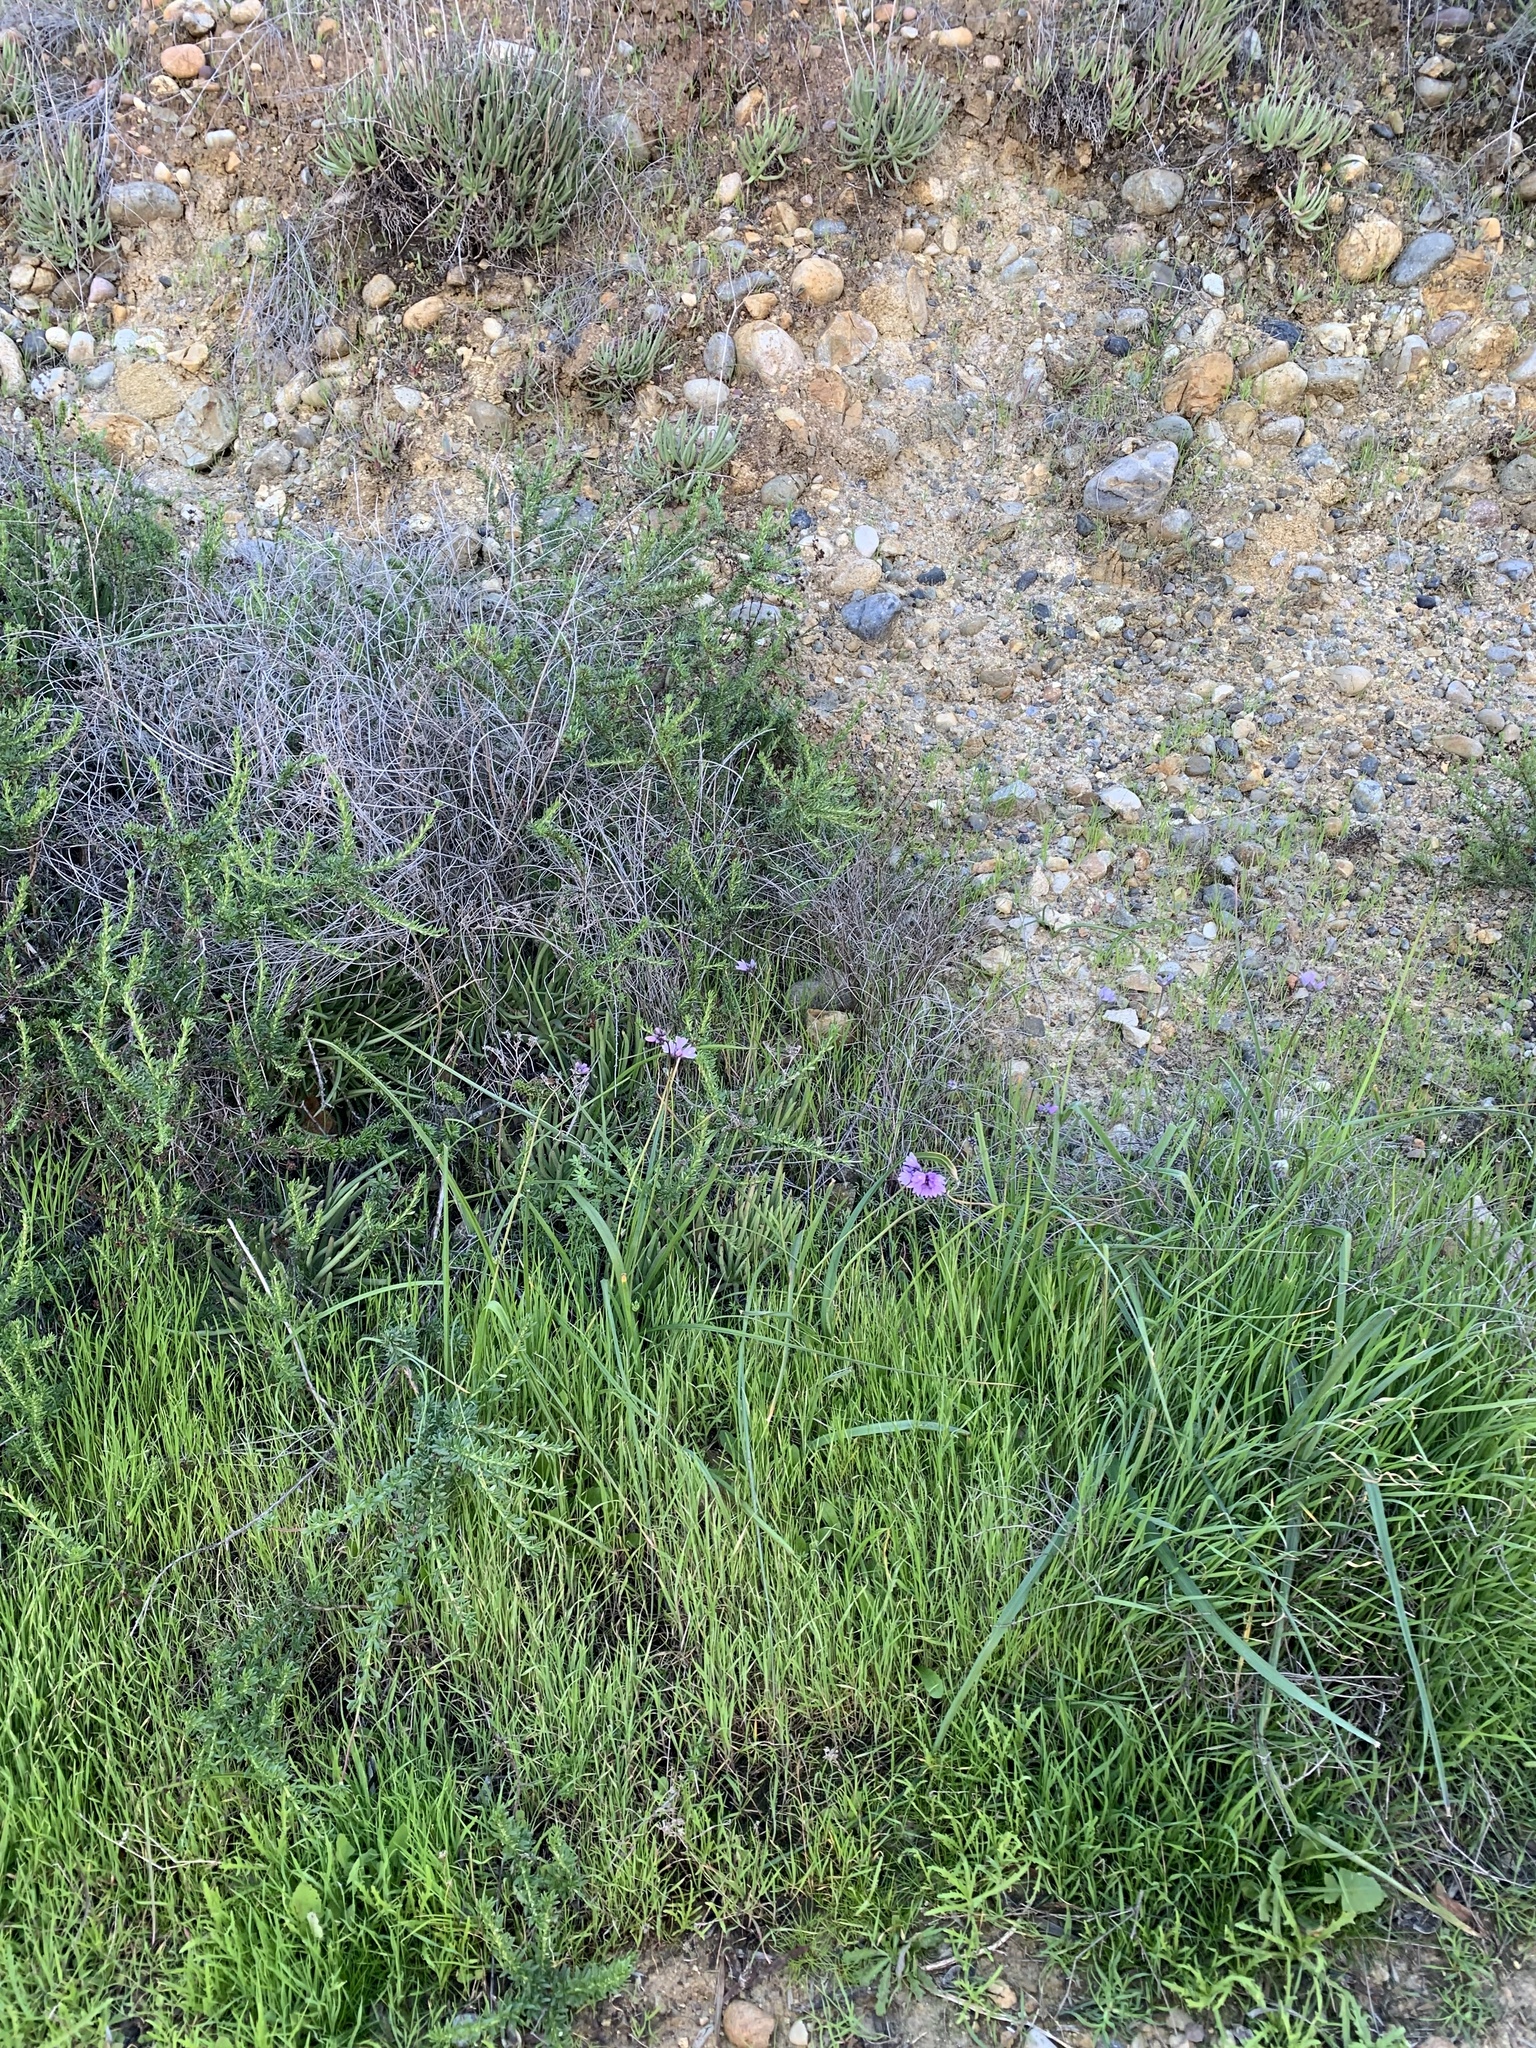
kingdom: Plantae
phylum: Tracheophyta
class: Liliopsida
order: Asparagales
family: Asparagaceae
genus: Dipterostemon
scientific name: Dipterostemon capitatus
